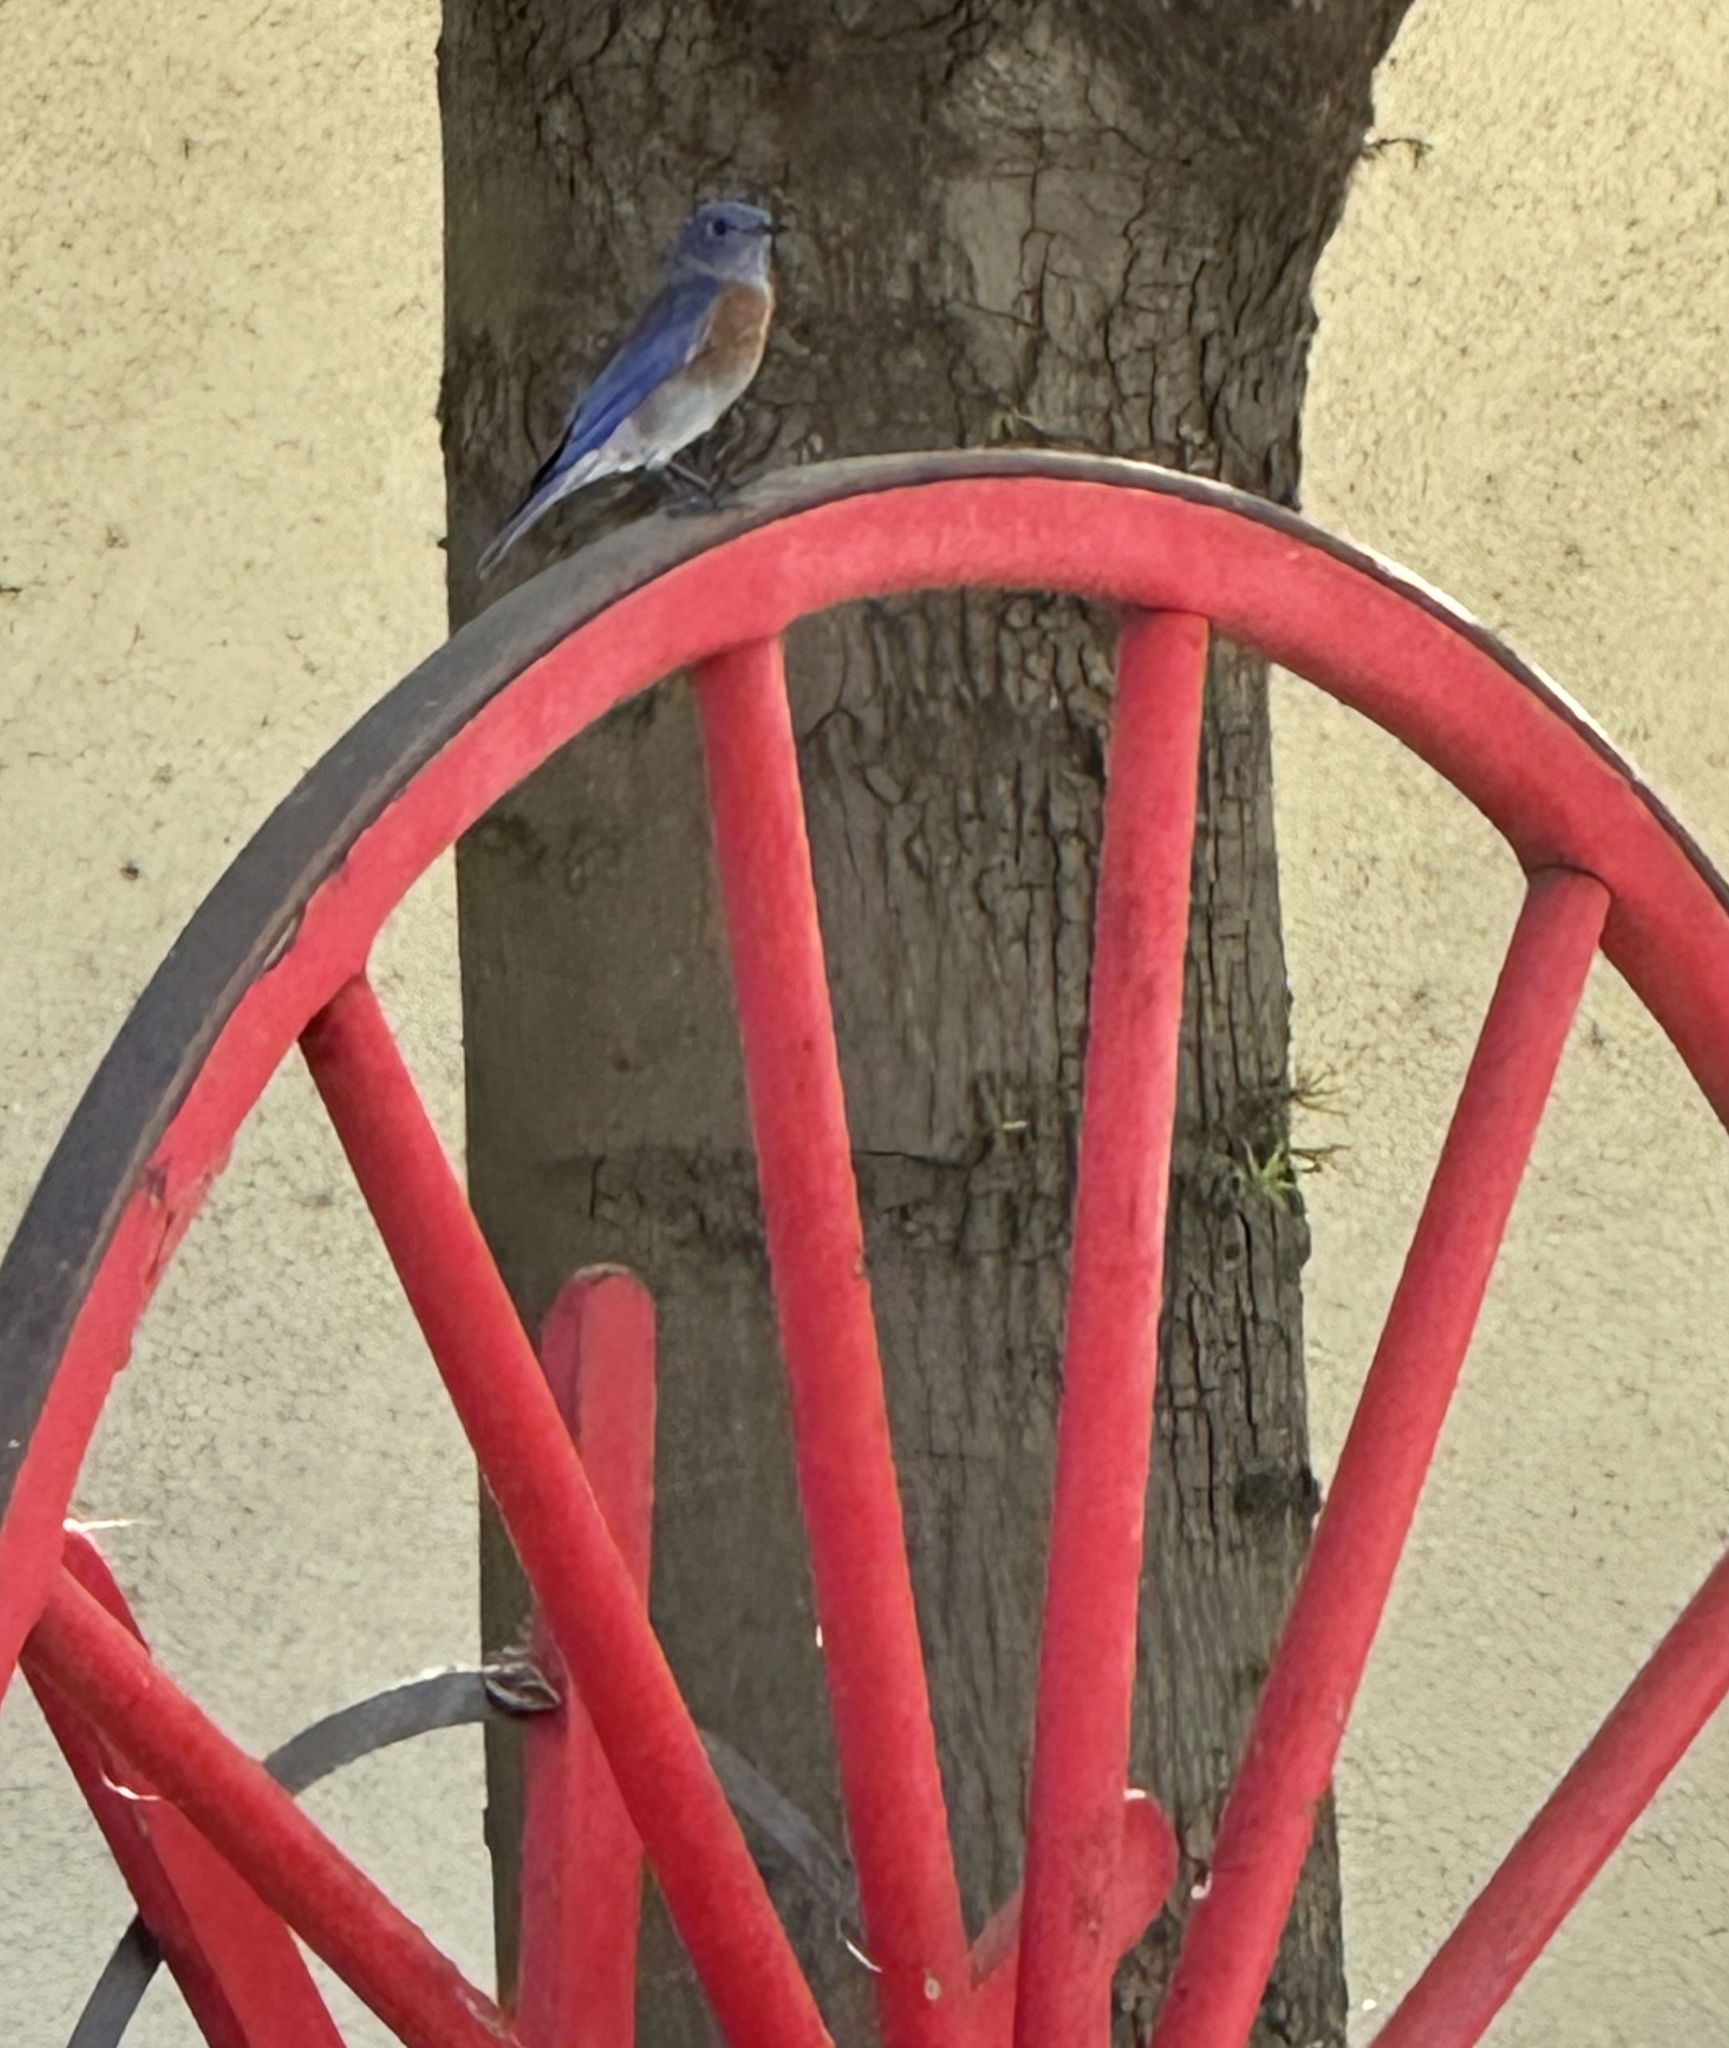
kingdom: Animalia
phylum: Chordata
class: Aves
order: Passeriformes
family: Turdidae
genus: Sialia
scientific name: Sialia mexicana
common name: Western bluebird
